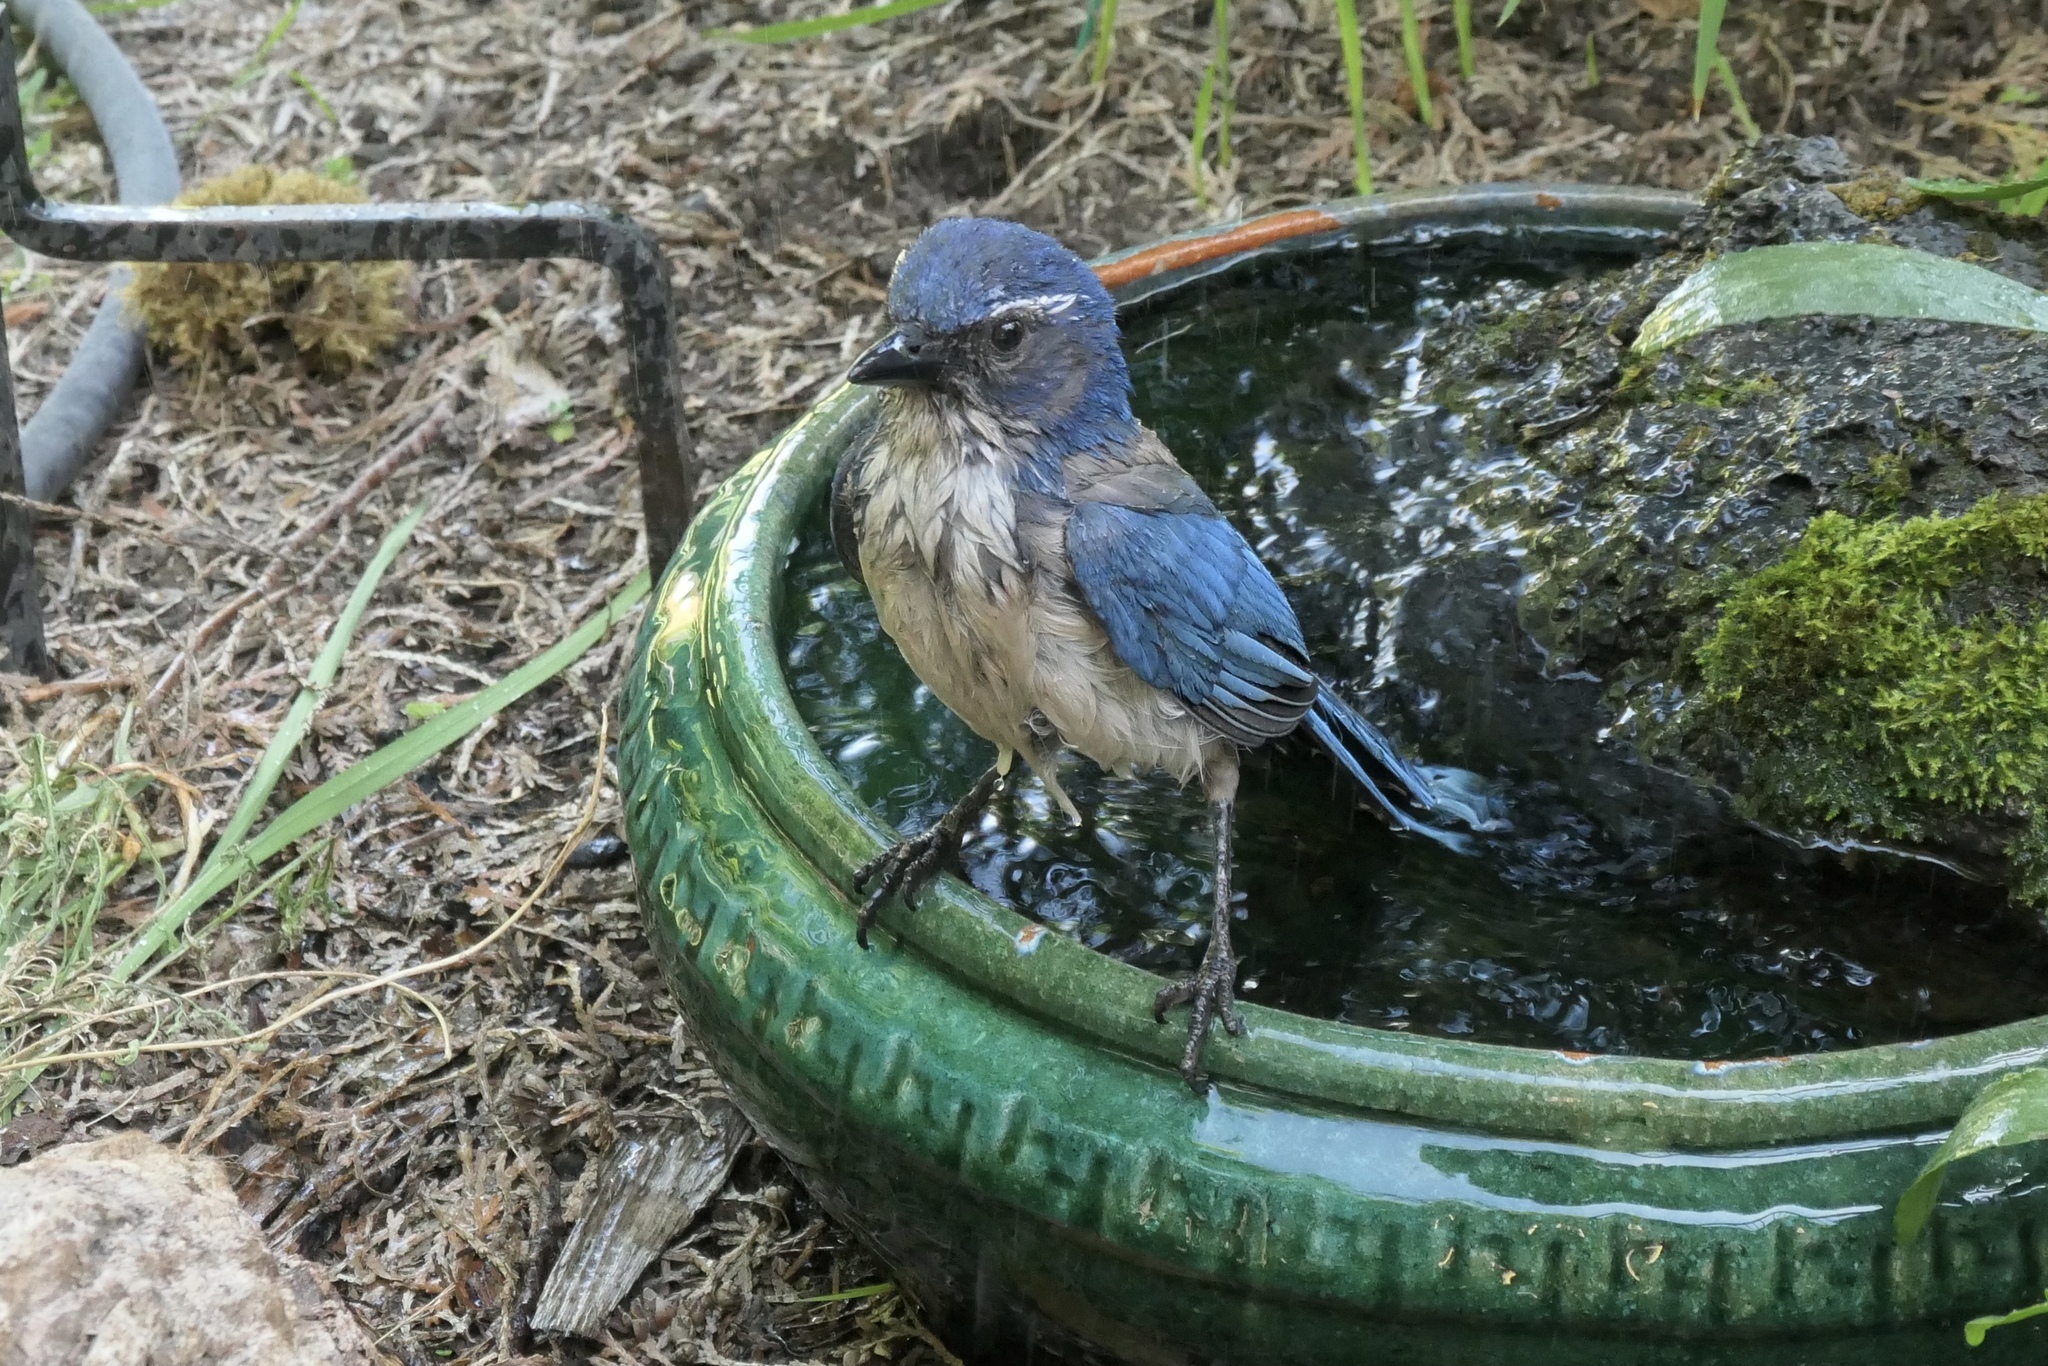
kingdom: Animalia
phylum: Chordata
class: Aves
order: Passeriformes
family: Corvidae
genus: Aphelocoma
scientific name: Aphelocoma californica
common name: California scrub-jay
